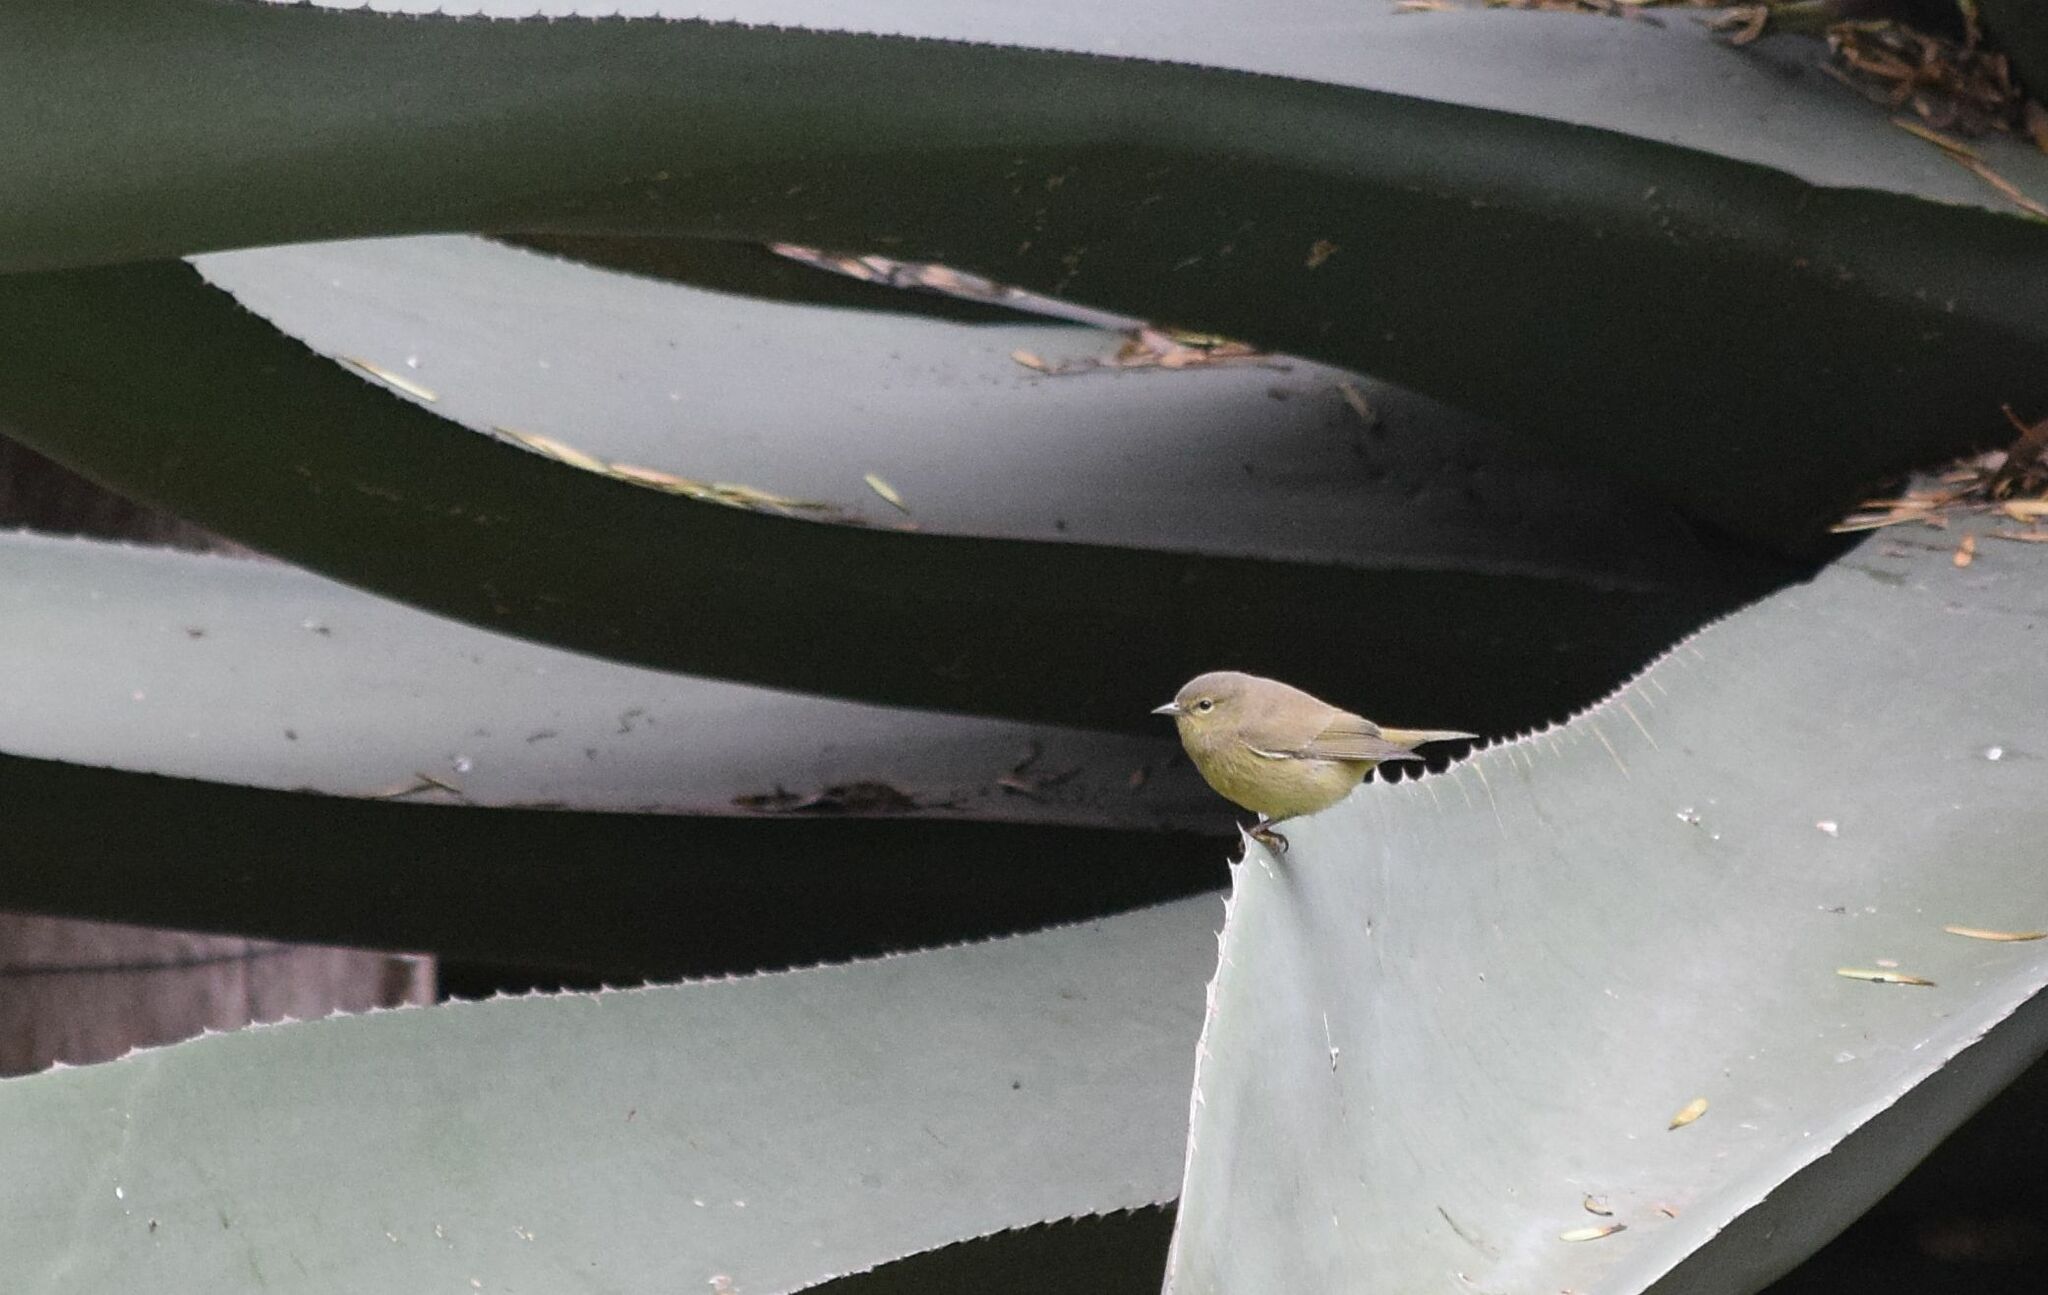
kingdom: Animalia
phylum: Chordata
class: Aves
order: Passeriformes
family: Parulidae
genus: Leiothlypis
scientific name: Leiothlypis celata
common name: Orange-crowned warbler
